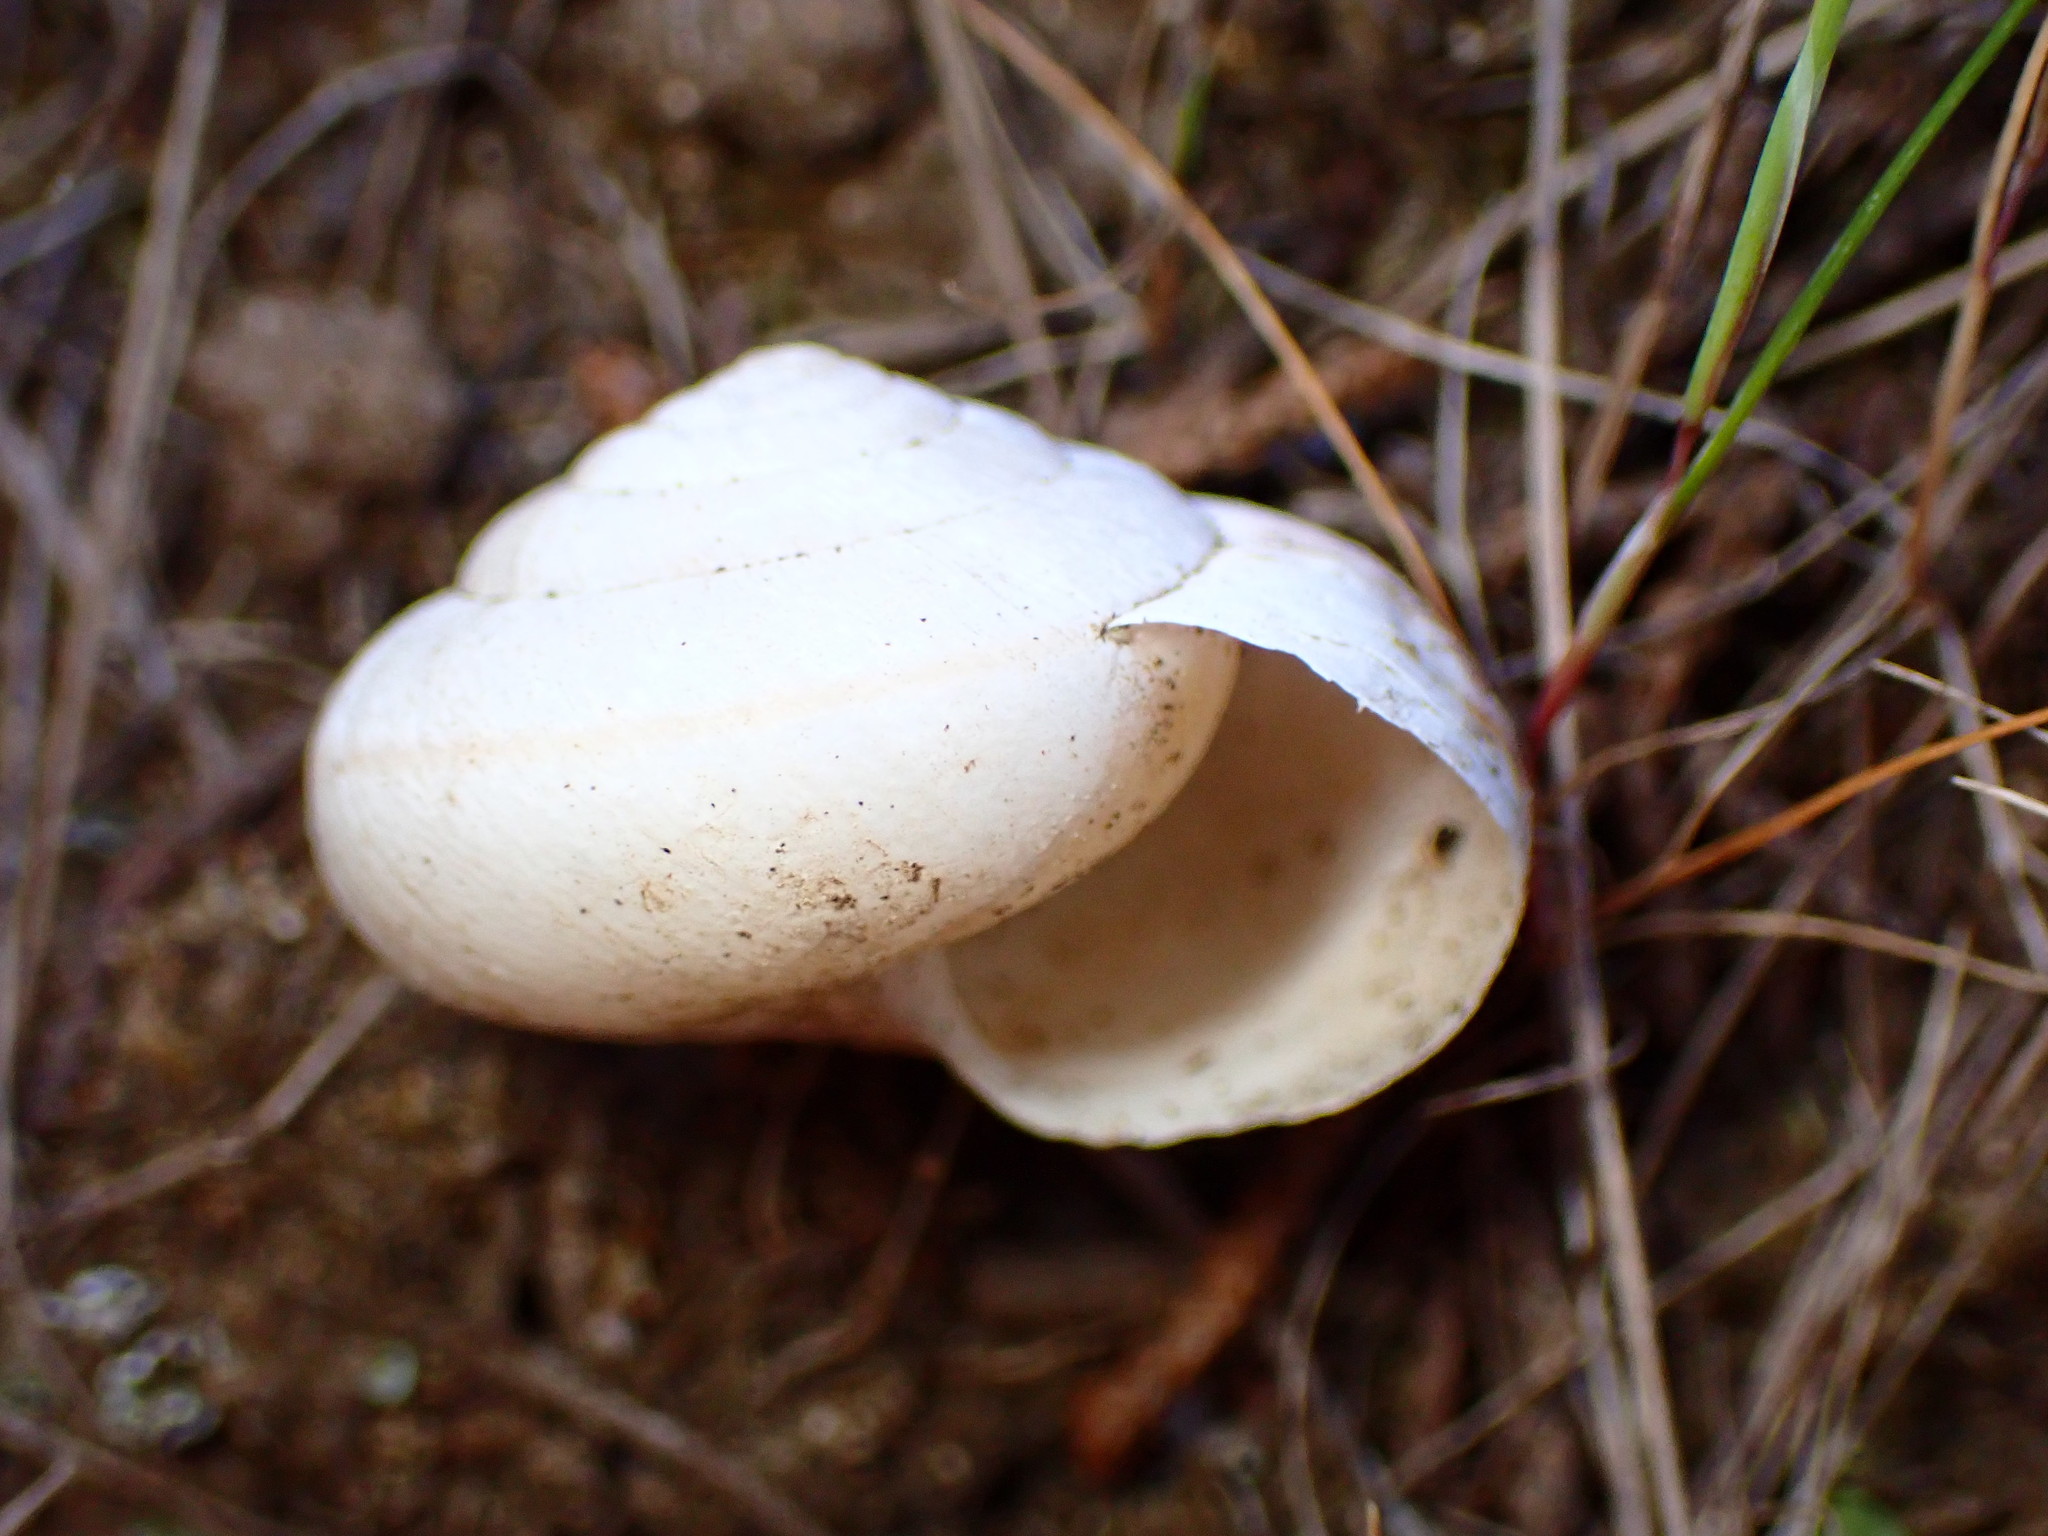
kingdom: Animalia
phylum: Mollusca
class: Gastropoda
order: Stylommatophora
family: Xanthonychidae
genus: Helminthoglypta
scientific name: Helminthoglypta arrosa
